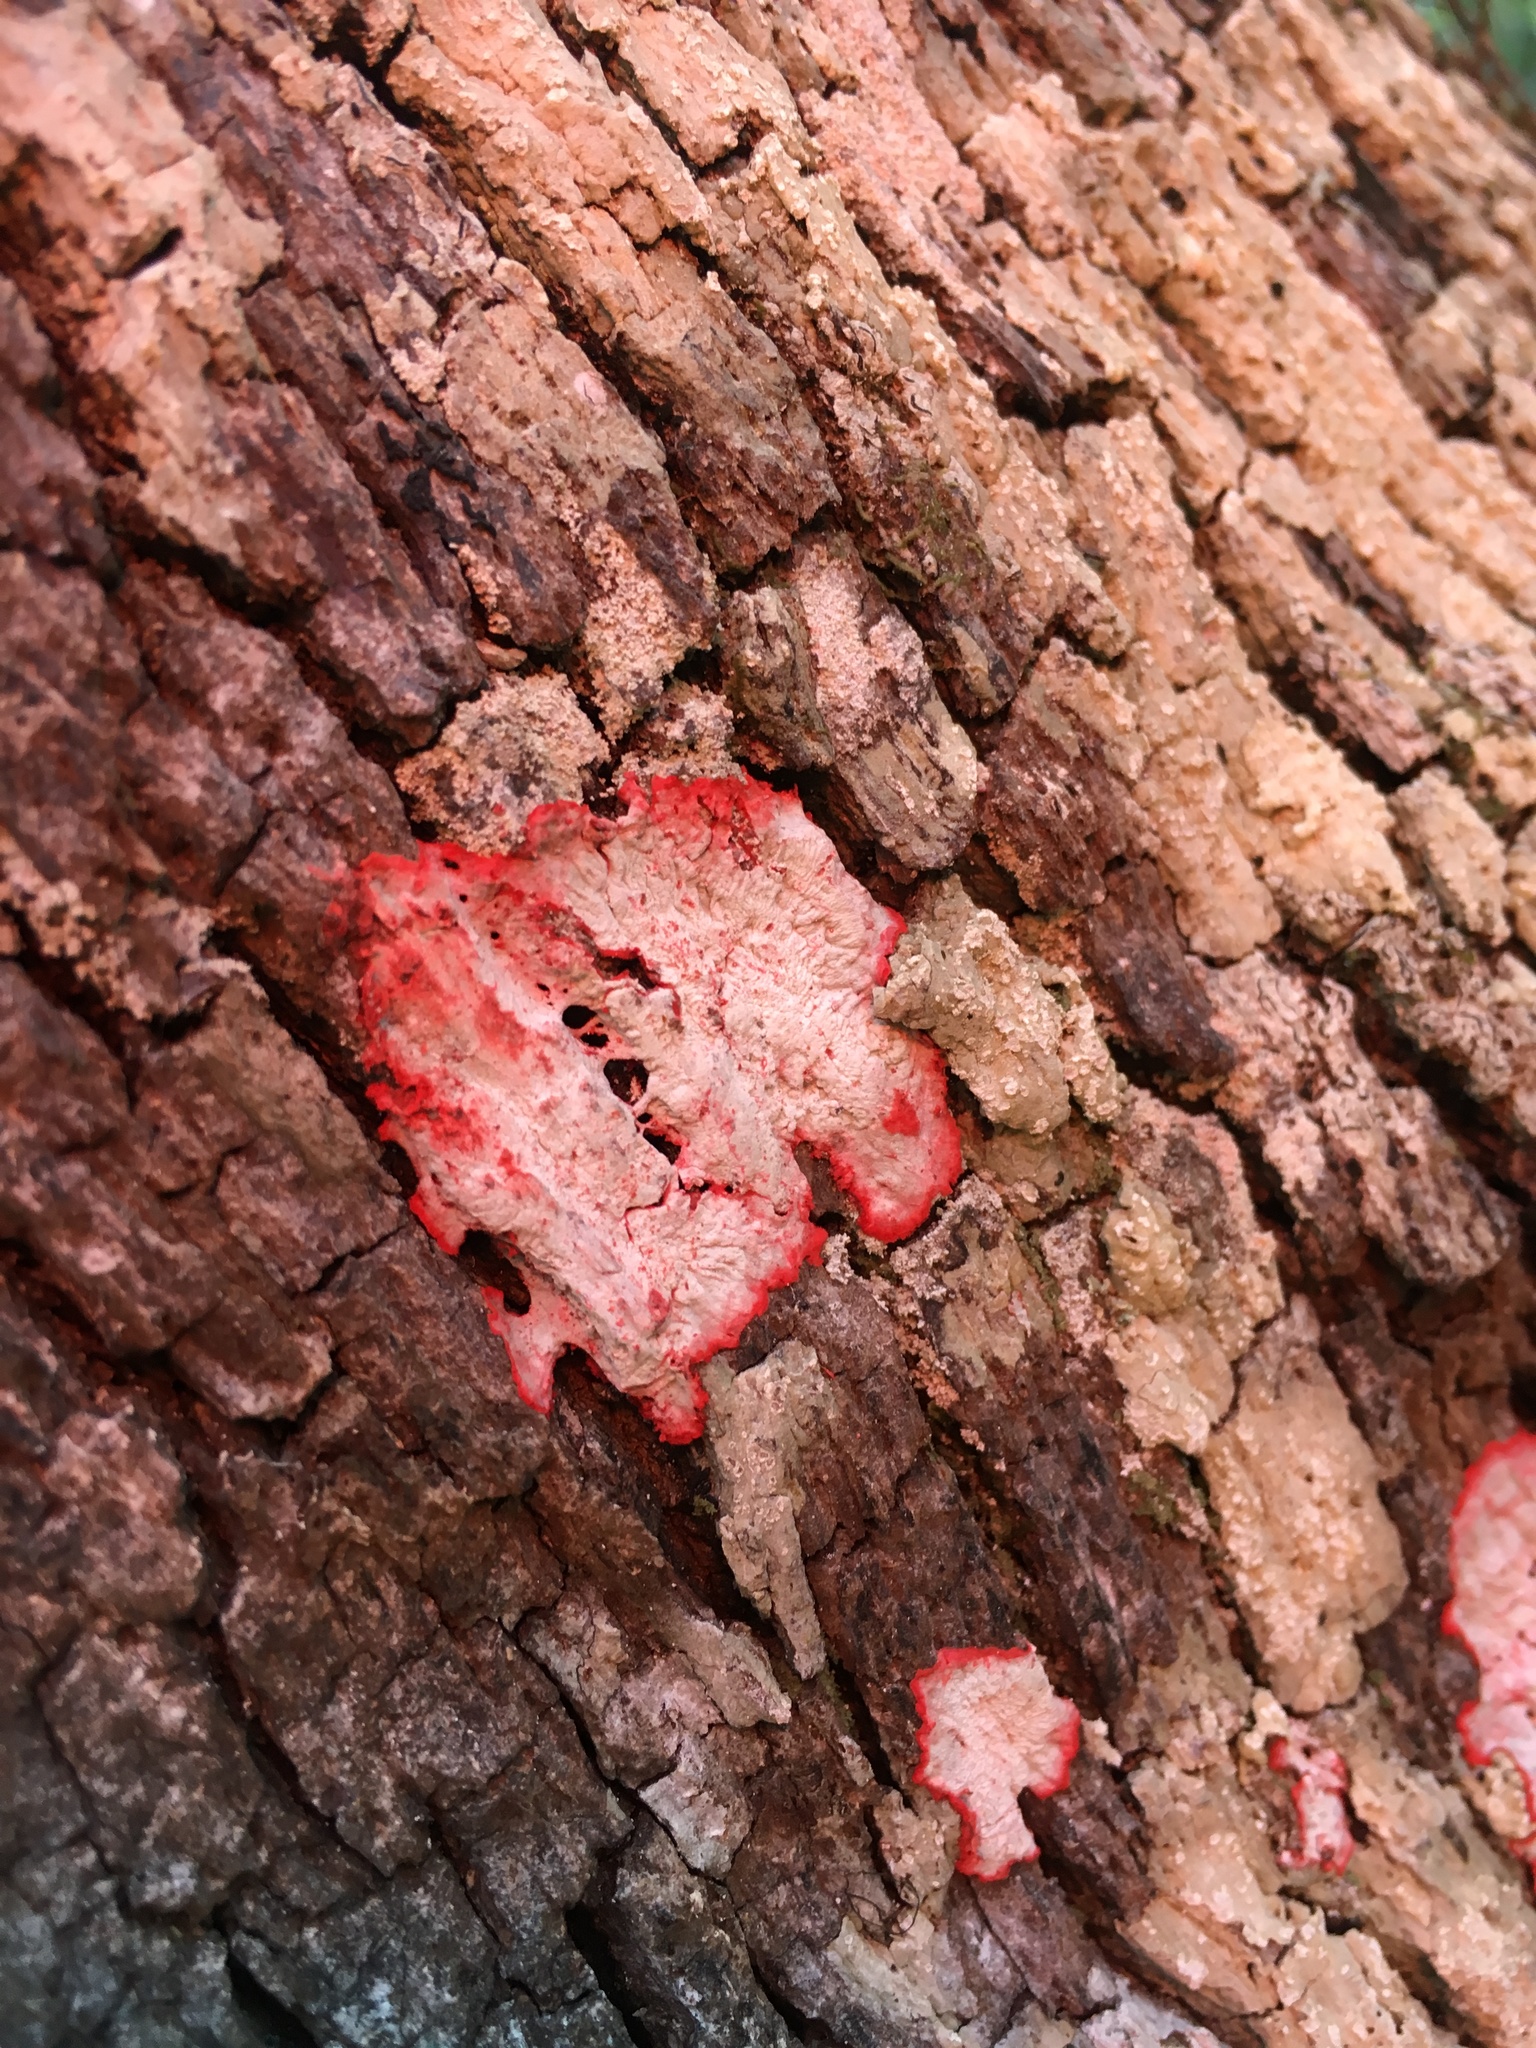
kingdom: Fungi
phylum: Ascomycota
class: Arthoniomycetes
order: Arthoniales
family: Arthoniaceae
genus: Herpothallon
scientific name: Herpothallon rubrocinctum
